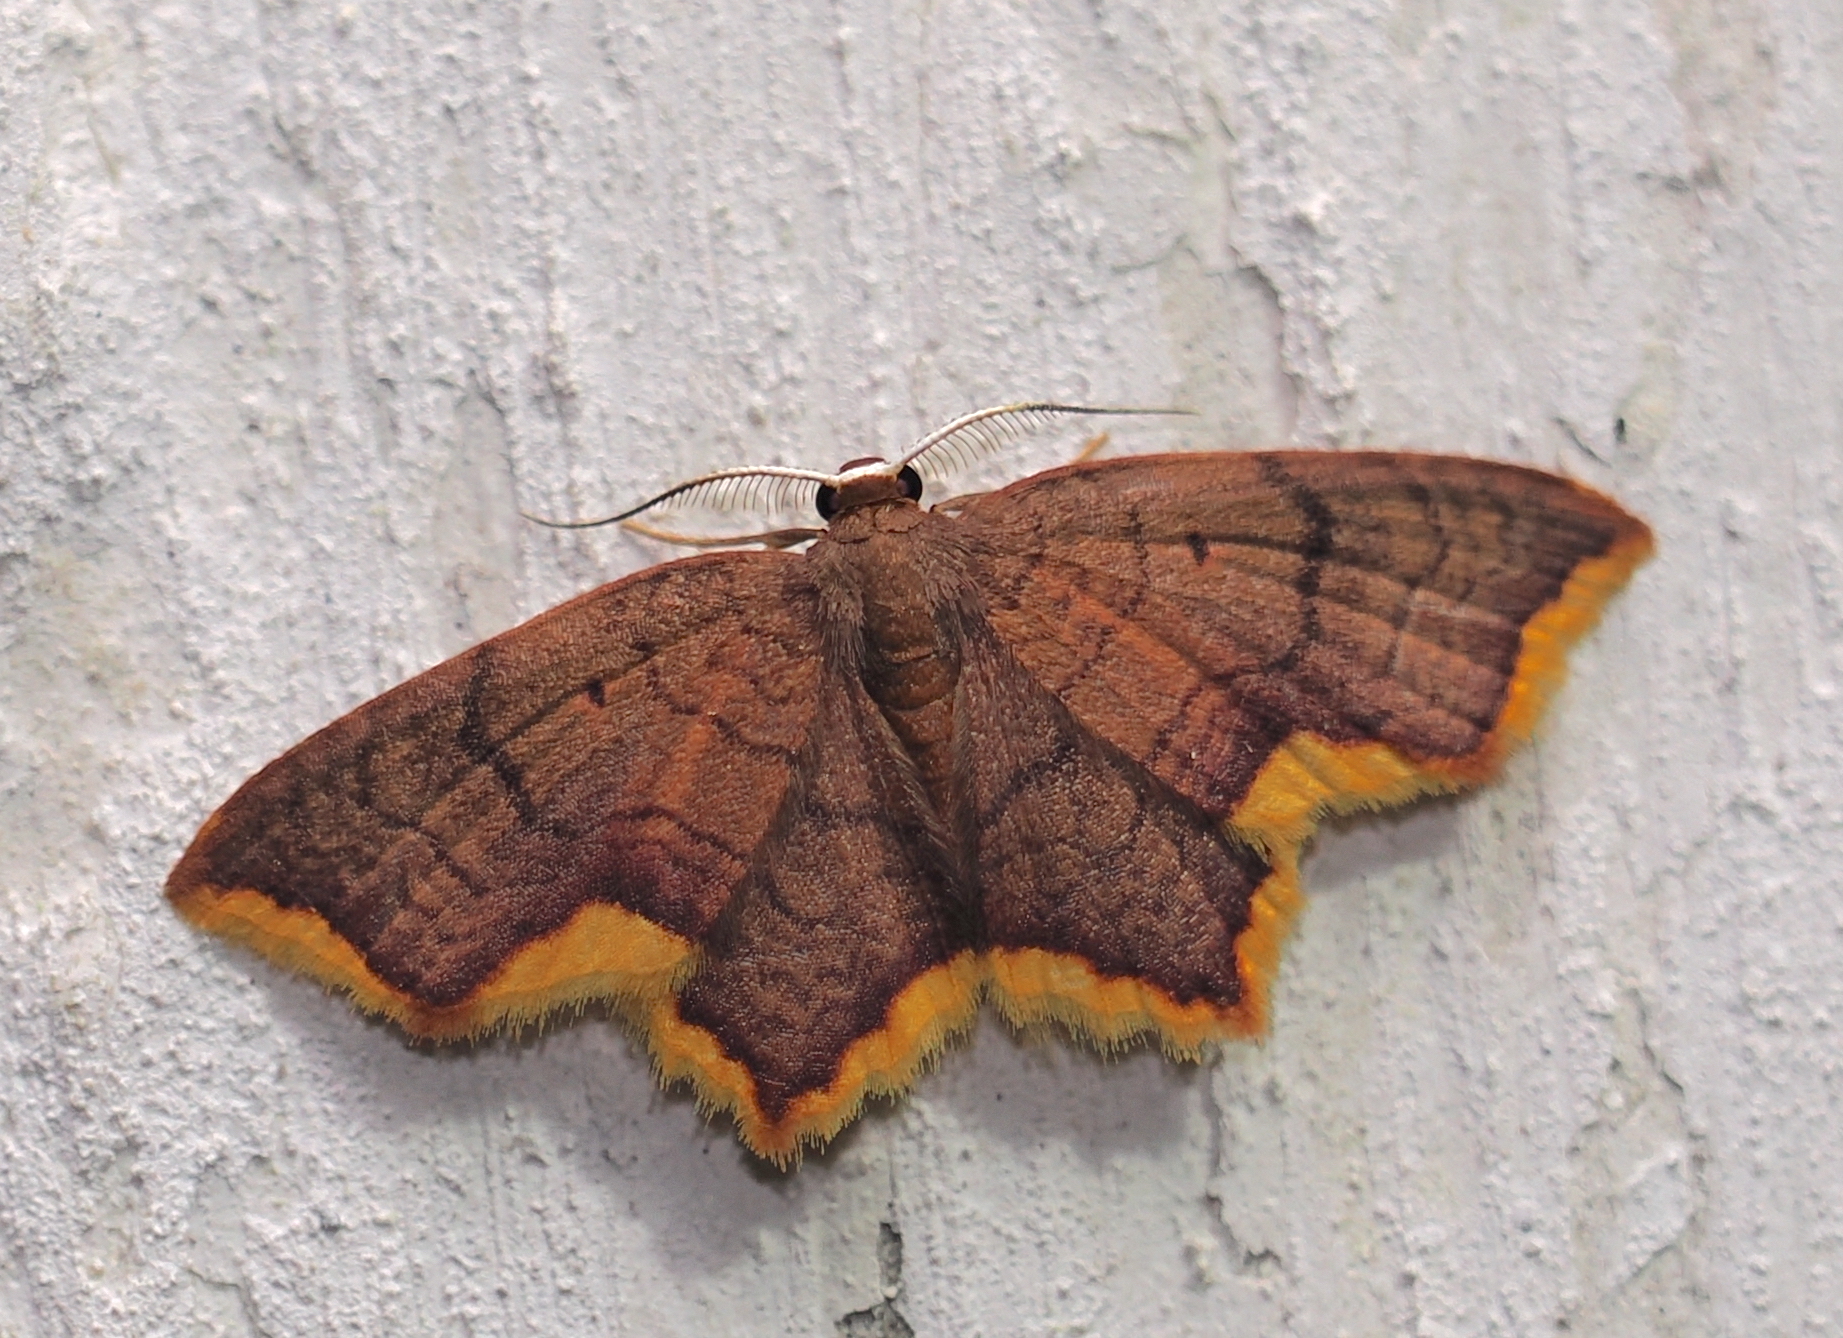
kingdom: Animalia
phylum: Arthropoda
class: Insecta
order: Lepidoptera
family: Geometridae
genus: Eois
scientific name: Eois dorisaria
